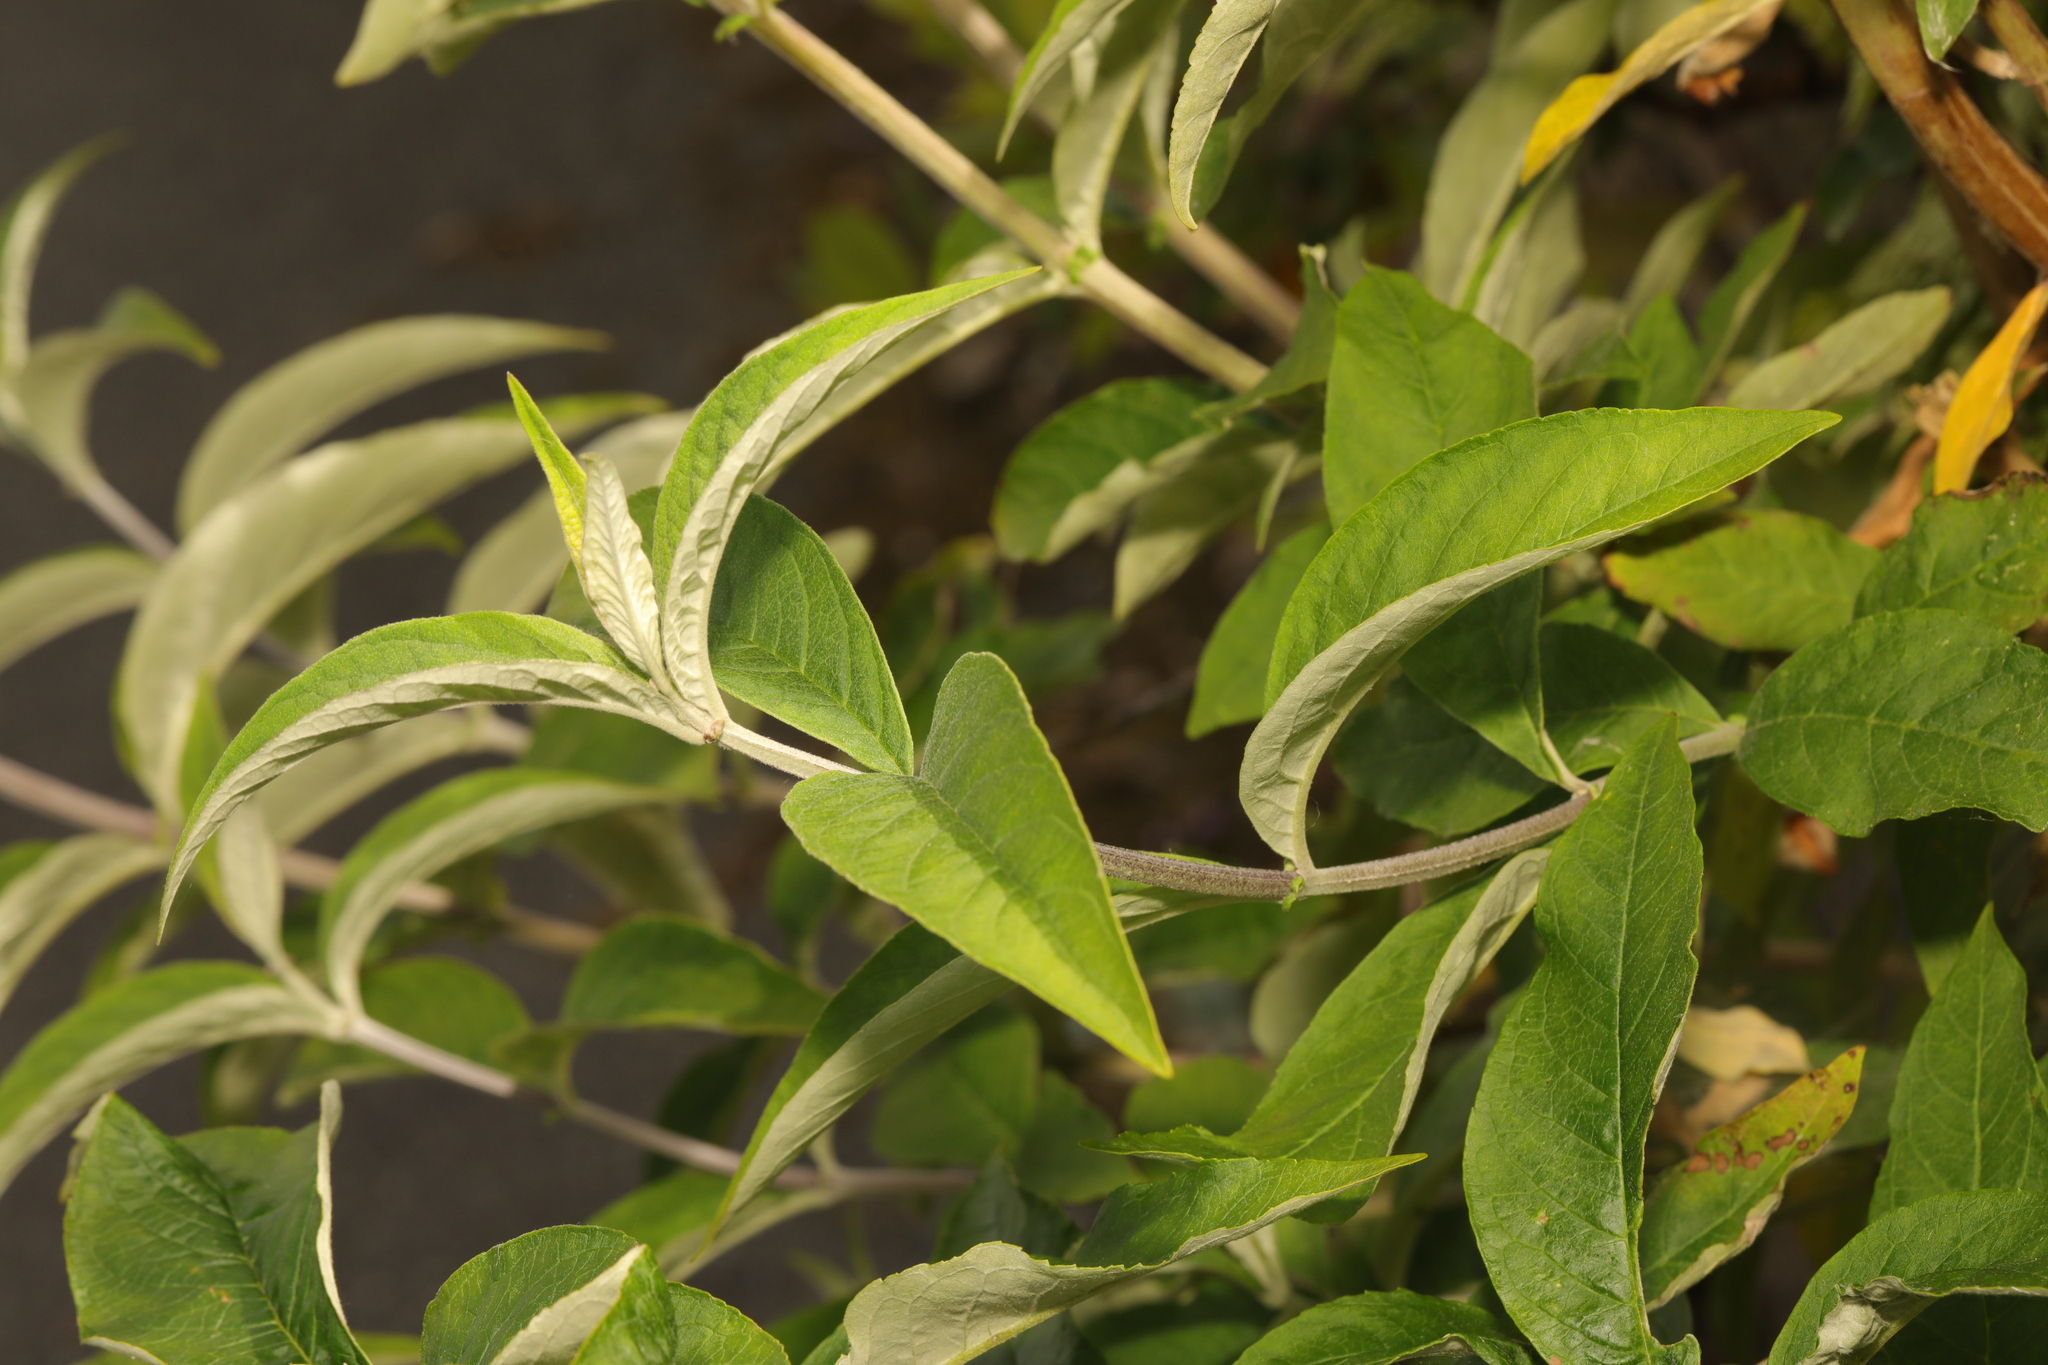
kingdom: Plantae
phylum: Tracheophyta
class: Magnoliopsida
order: Lamiales
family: Scrophulariaceae
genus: Buddleja
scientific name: Buddleja davidii
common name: Butterfly-bush
